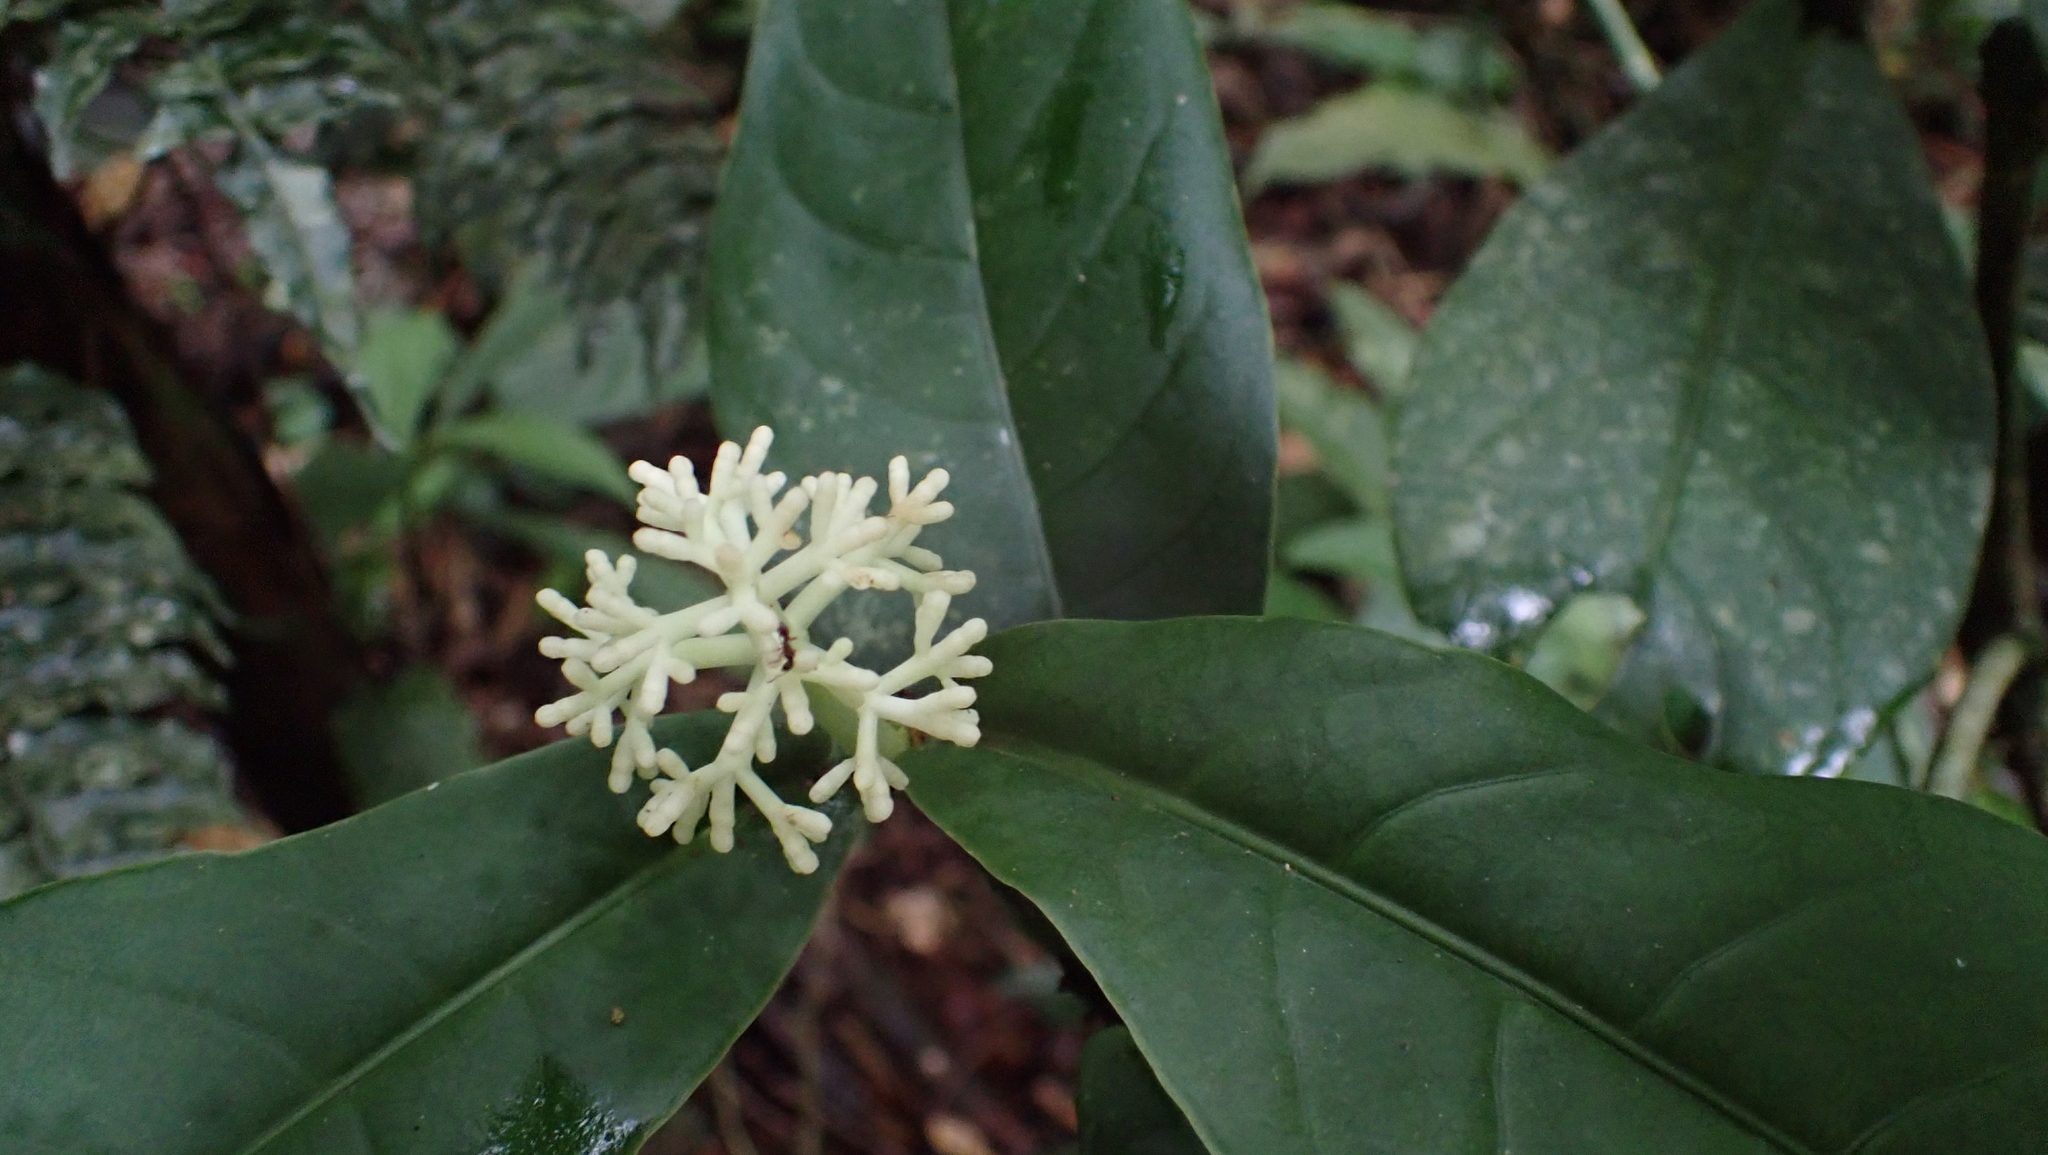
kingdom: Plantae
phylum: Tracheophyta
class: Magnoliopsida
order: Gentianales
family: Rubiaceae
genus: Rudgea
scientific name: Rudgea reducticalyx
